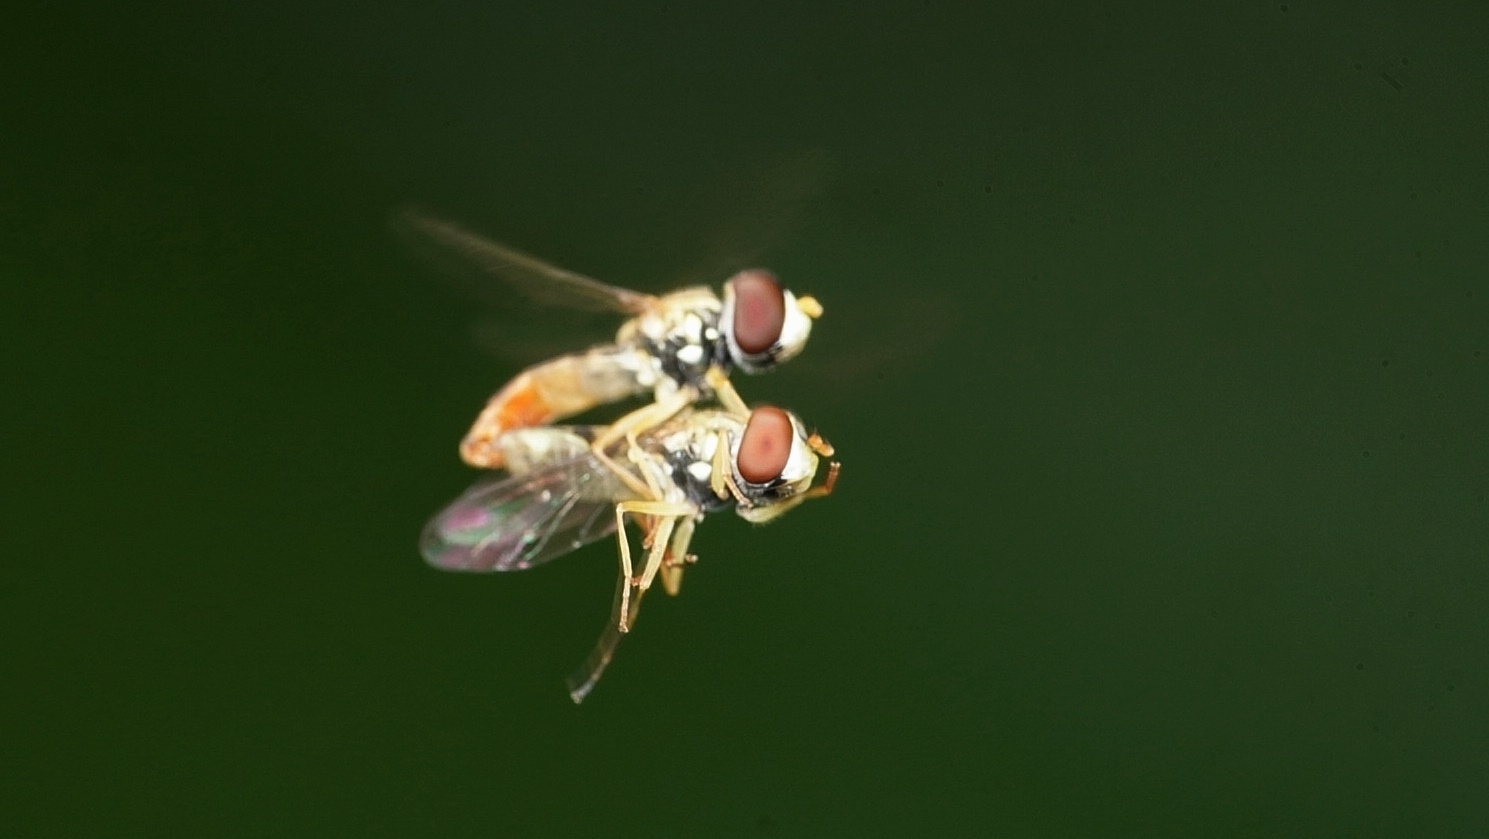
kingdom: Animalia
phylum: Arthropoda
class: Insecta
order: Diptera
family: Syrphidae
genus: Toxomerus
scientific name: Toxomerus marginatus
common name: Syrphid fly
